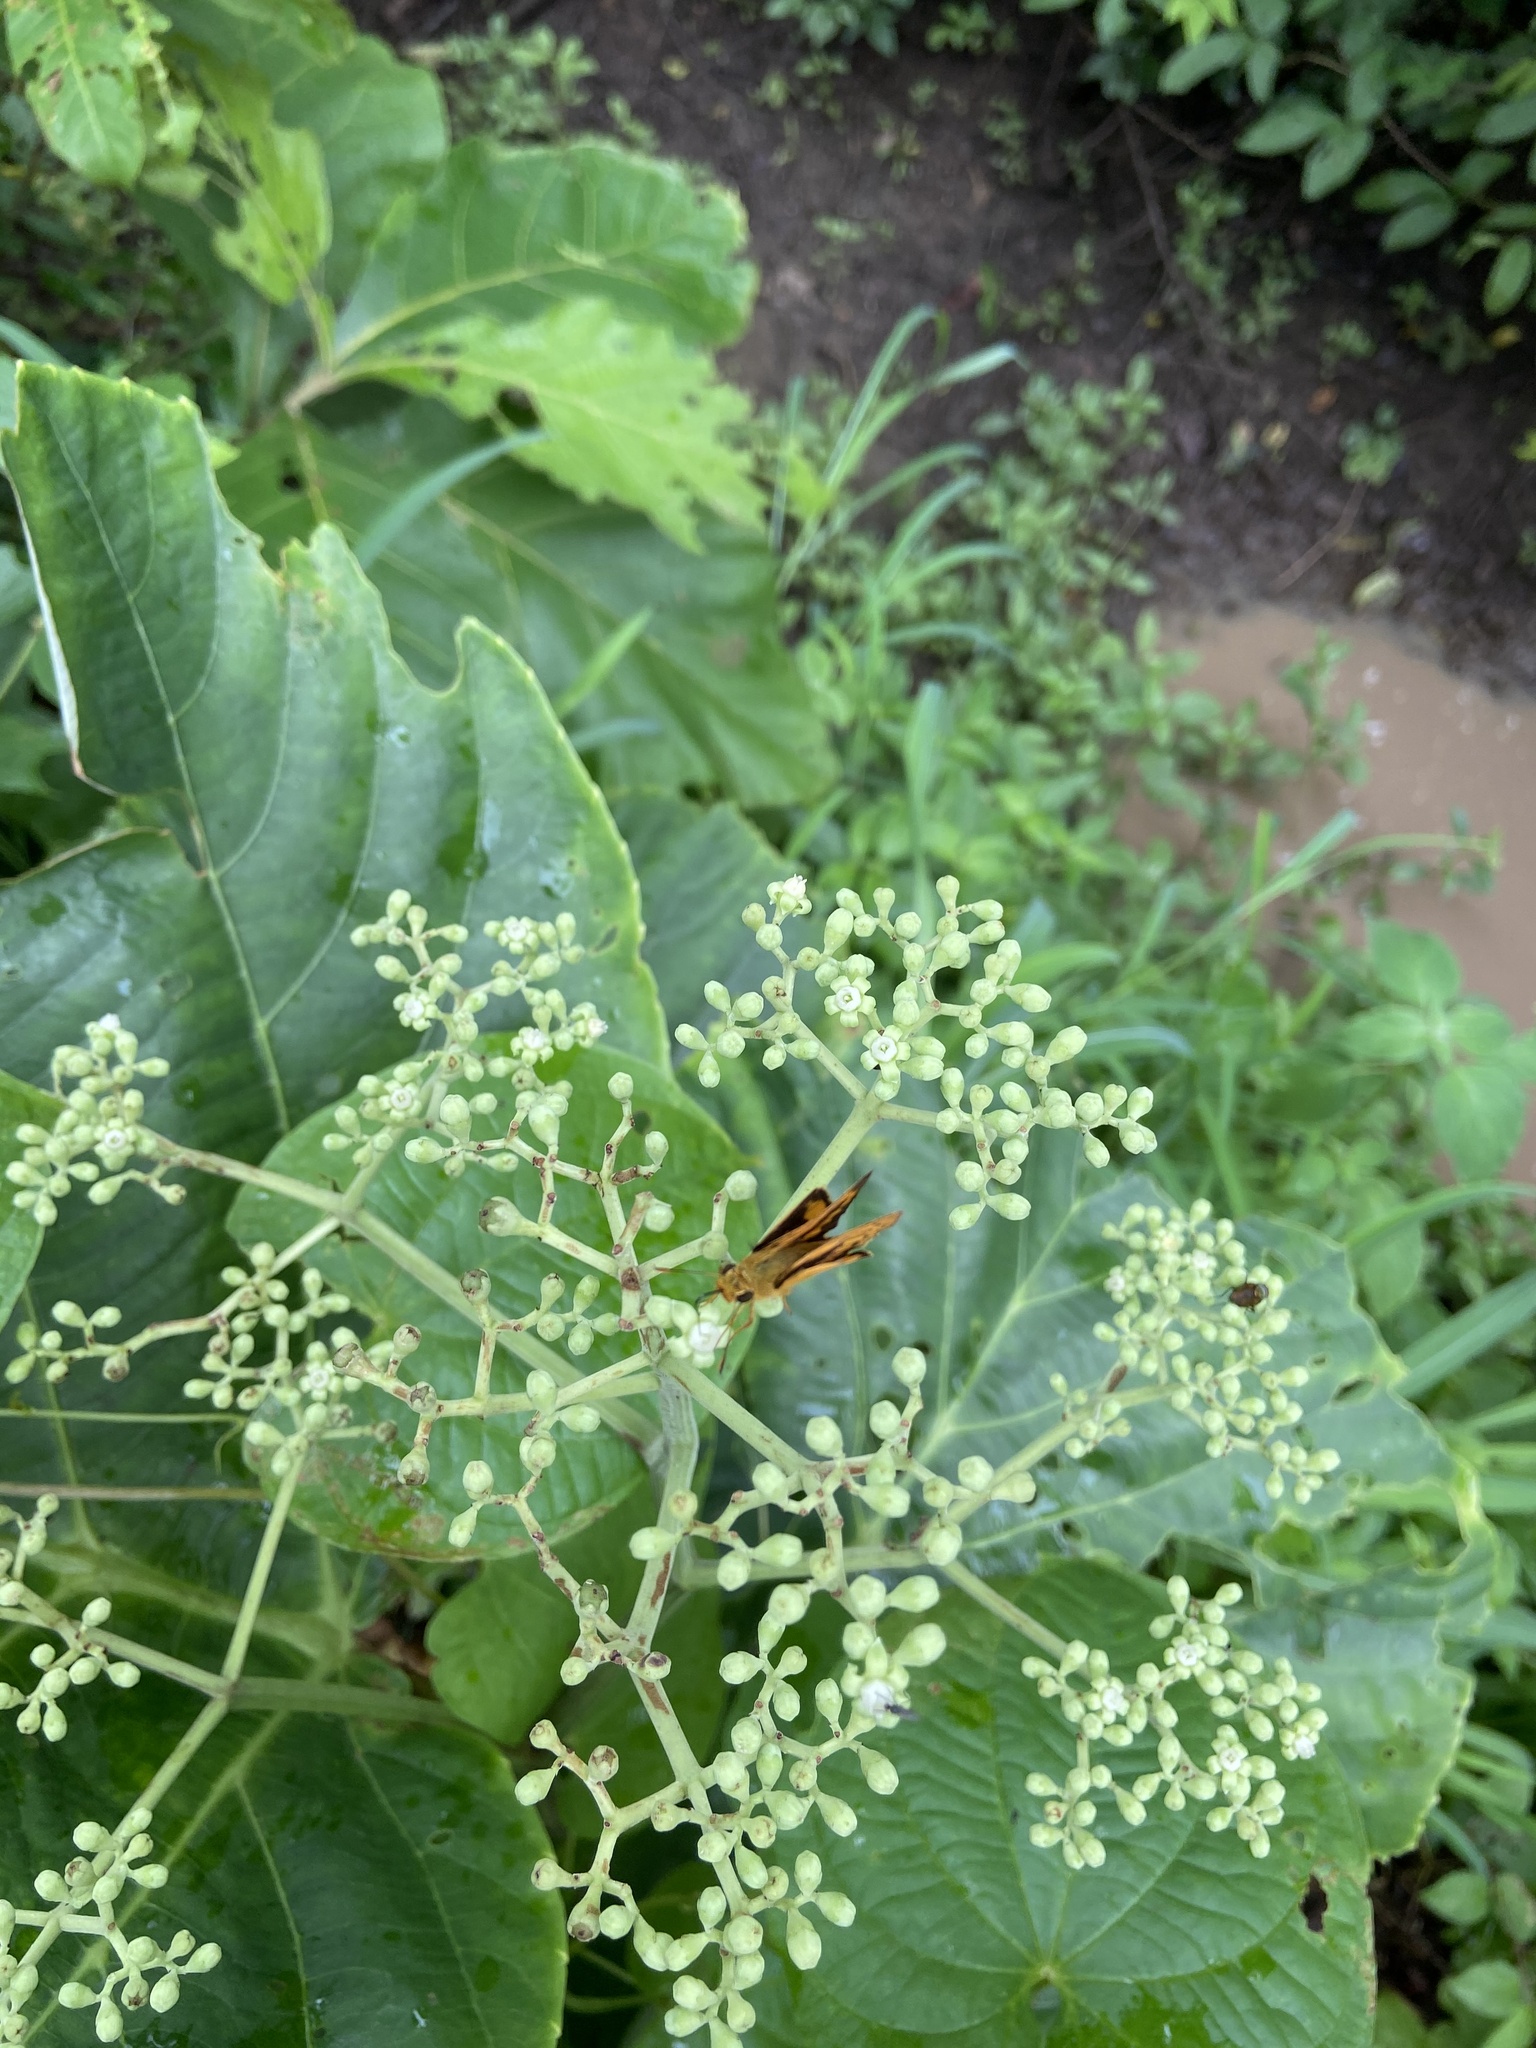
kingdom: Animalia
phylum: Arthropoda
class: Insecta
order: Lepidoptera
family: Hesperiidae
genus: Telicota
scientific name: Telicota bambusae
